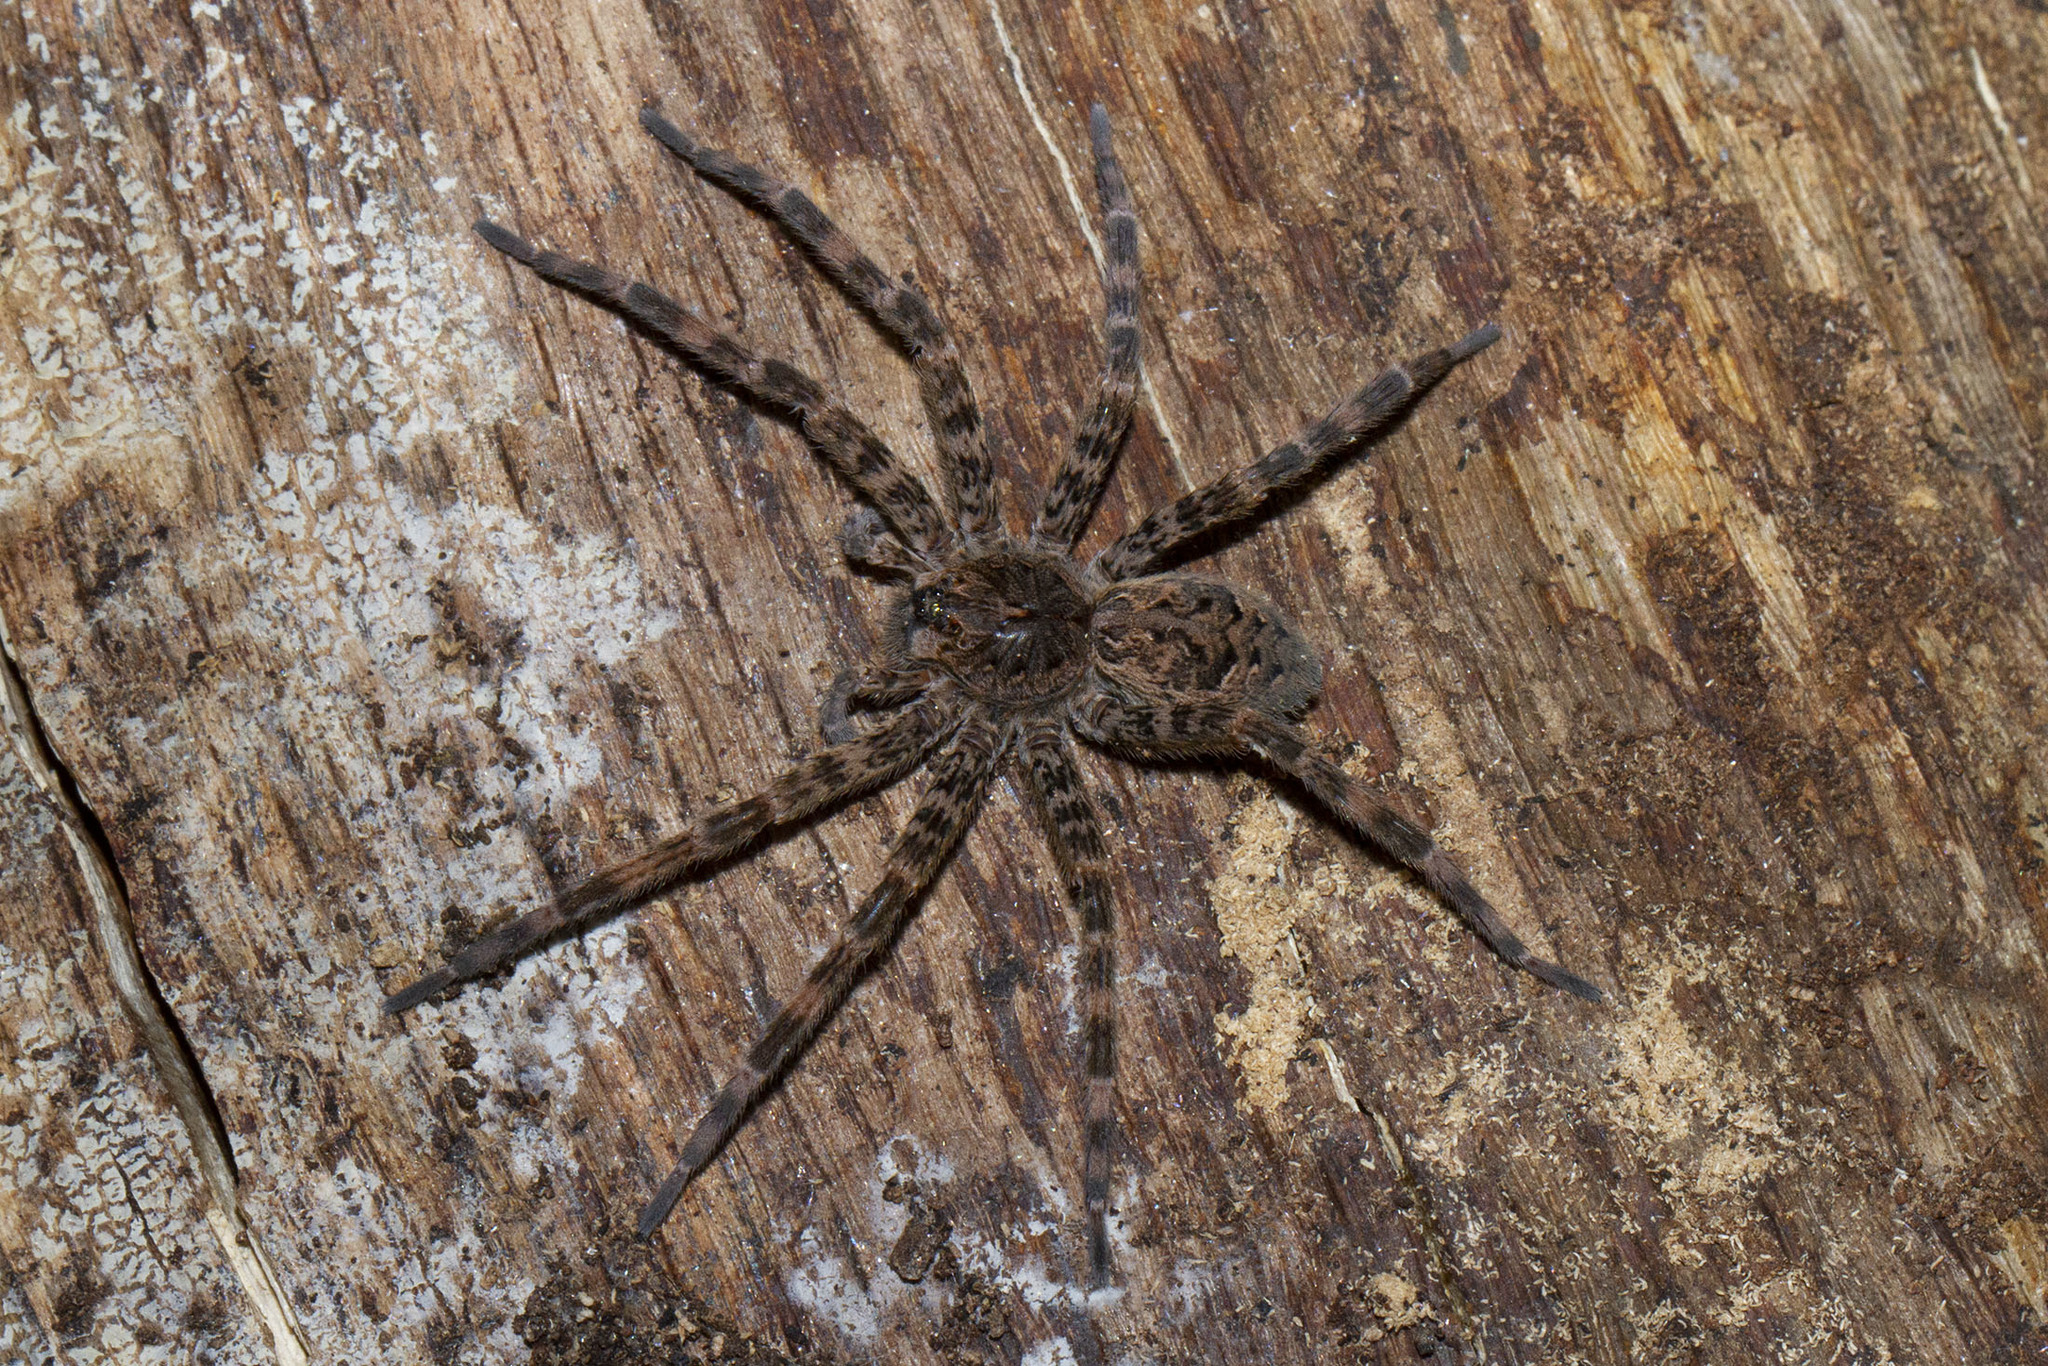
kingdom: Animalia
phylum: Arthropoda
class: Arachnida
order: Araneae
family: Pisauridae
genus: Dolomedes
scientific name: Dolomedes tenebrosus
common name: Dark fishing spider
